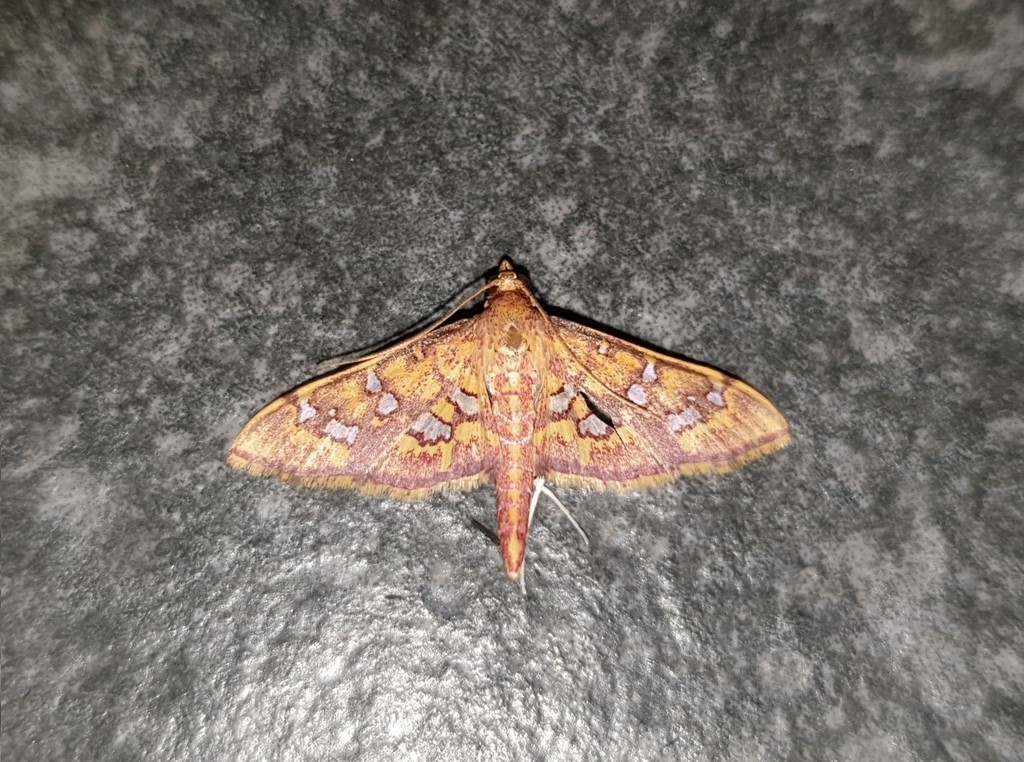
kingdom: Animalia
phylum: Arthropoda
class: Insecta
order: Lepidoptera
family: Crambidae
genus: Ischnurges
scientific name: Ischnurges gratiosalis
